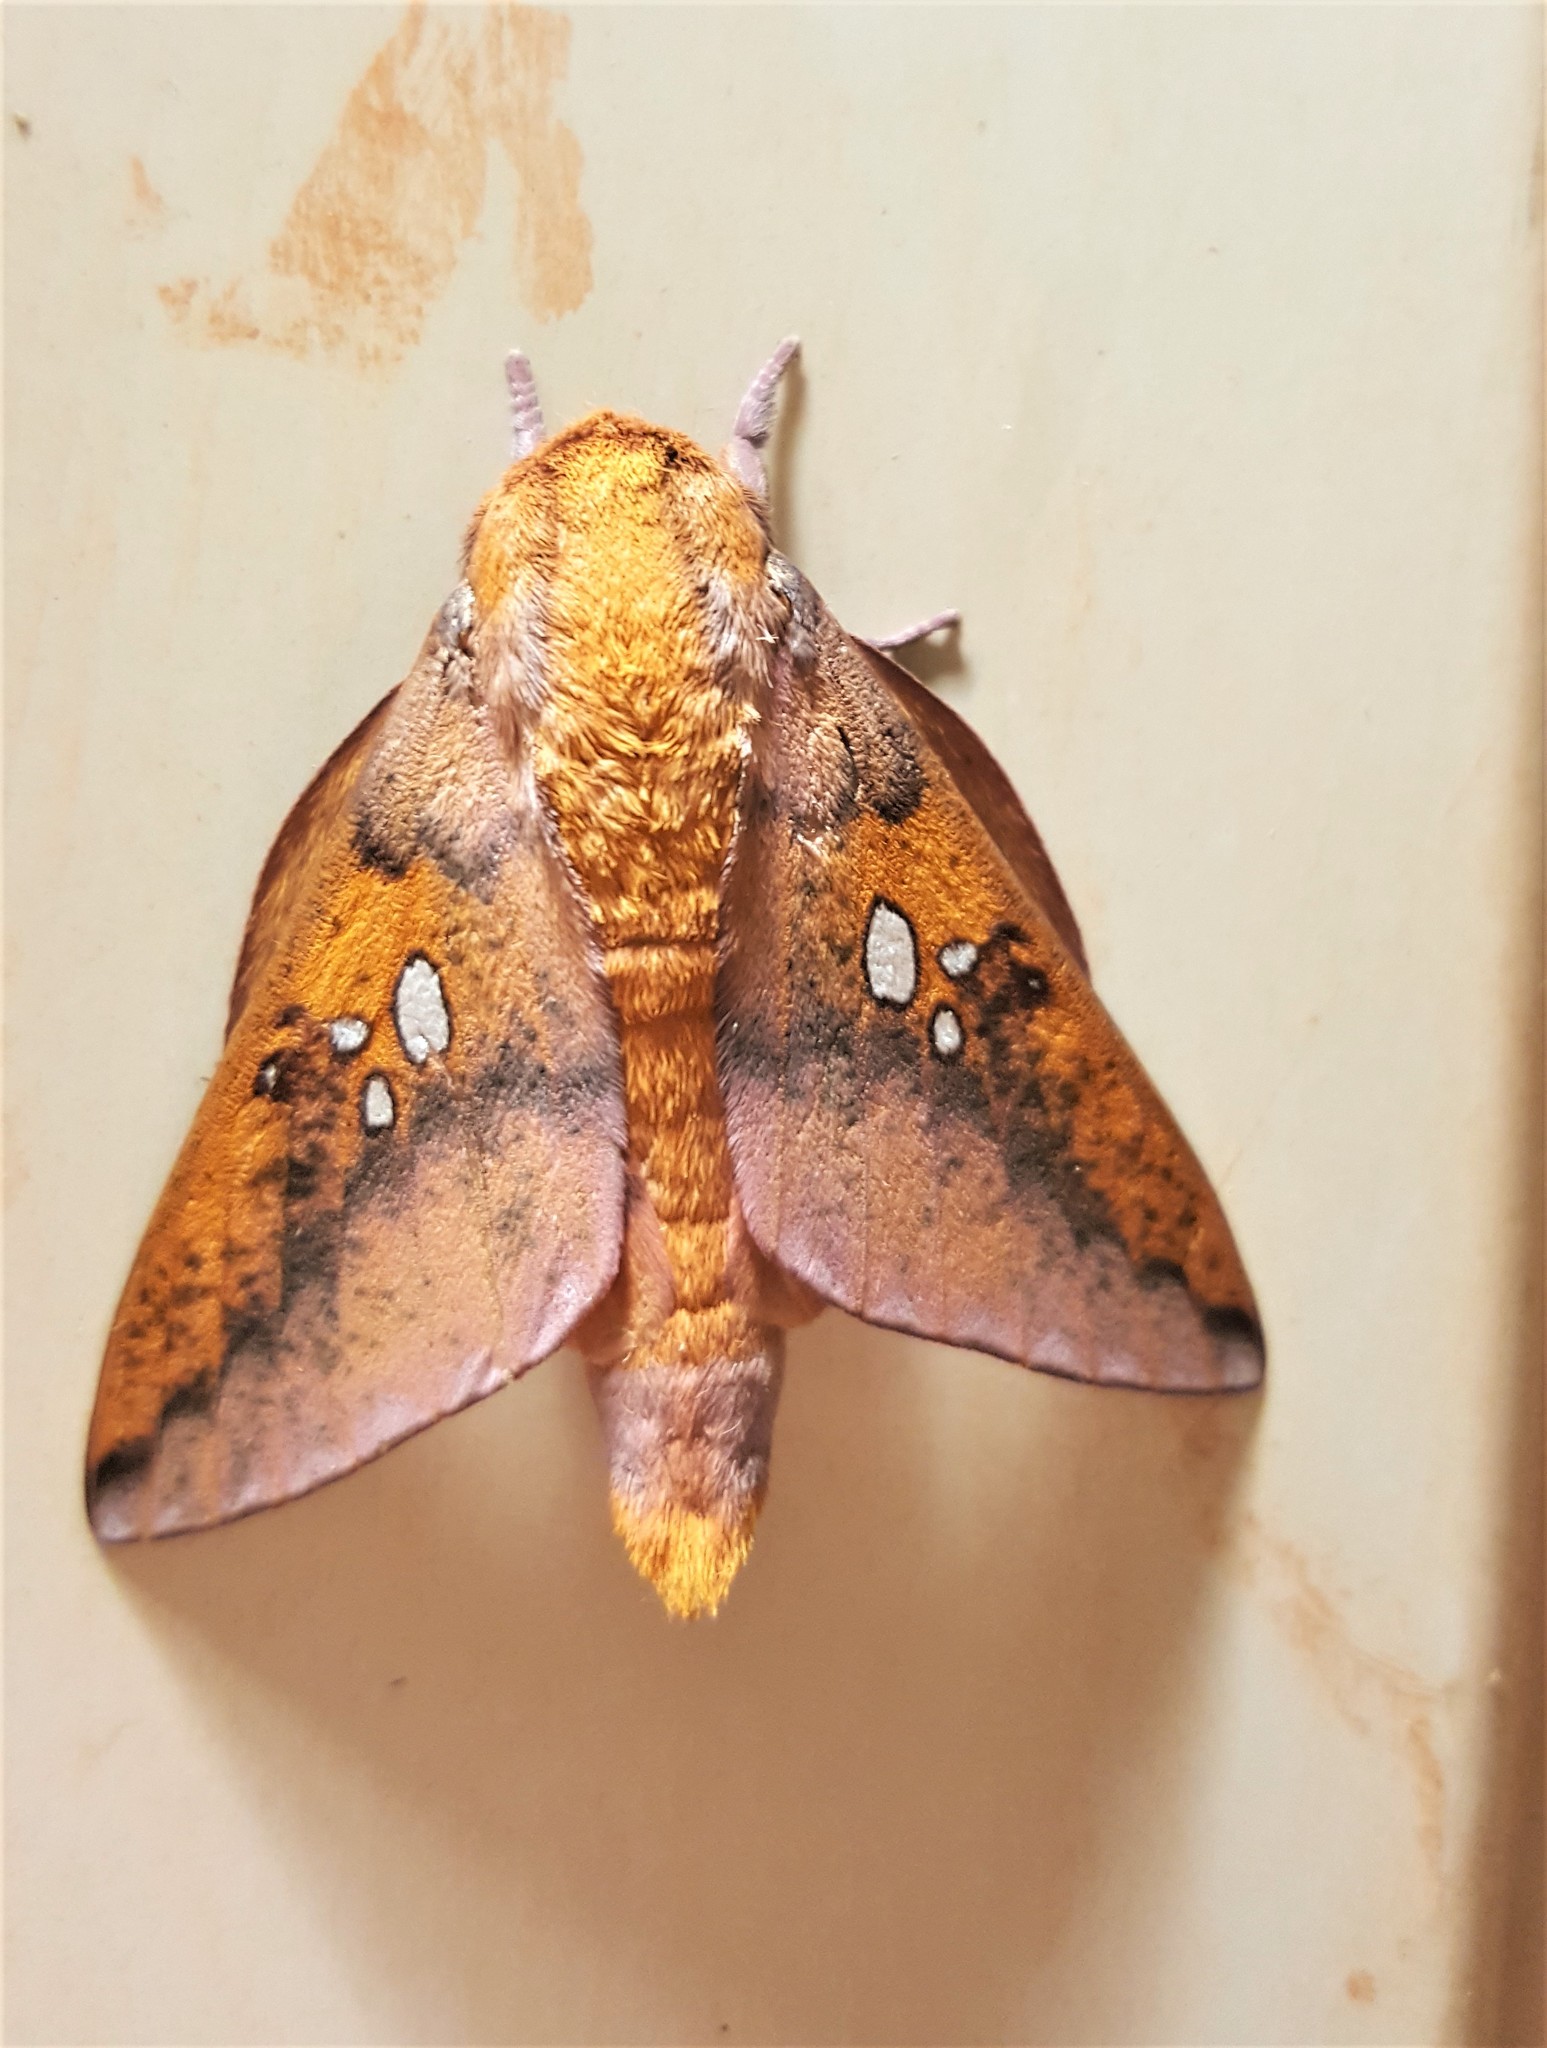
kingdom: Animalia
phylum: Arthropoda
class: Insecta
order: Lepidoptera
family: Saturniidae
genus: Adelowalkeria
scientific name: Adelowalkeria plateada
